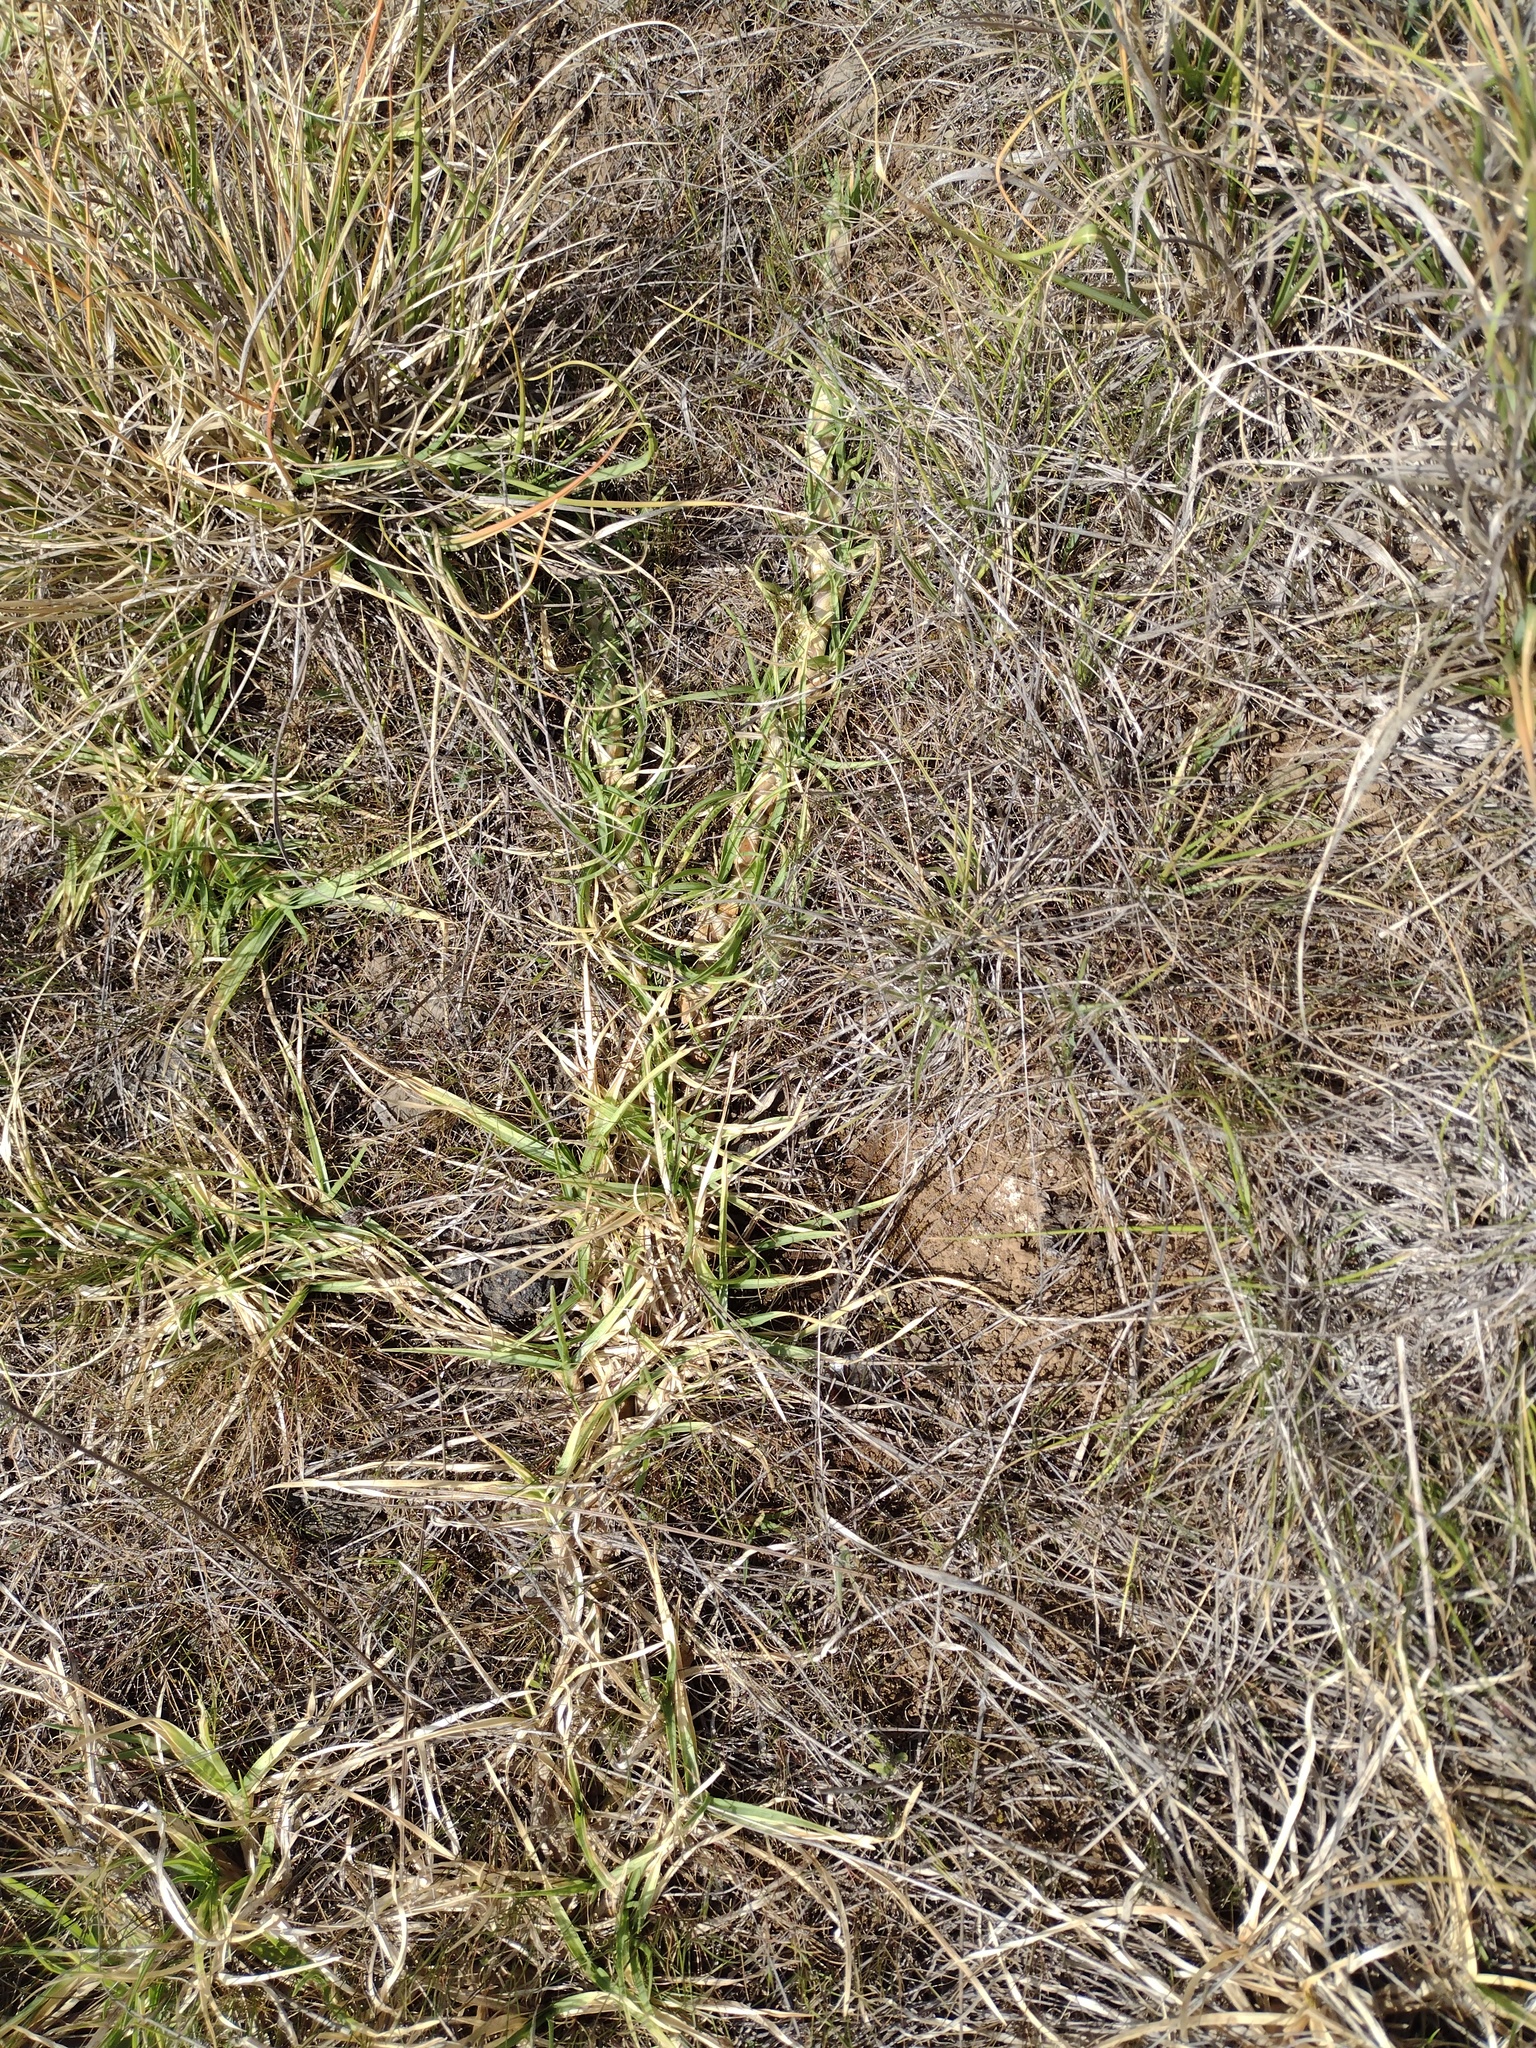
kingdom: Plantae
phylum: Tracheophyta
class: Liliopsida
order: Poales
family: Poaceae
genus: Cenchrus
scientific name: Cenchrus clandestinus
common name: Kikuyugrass
